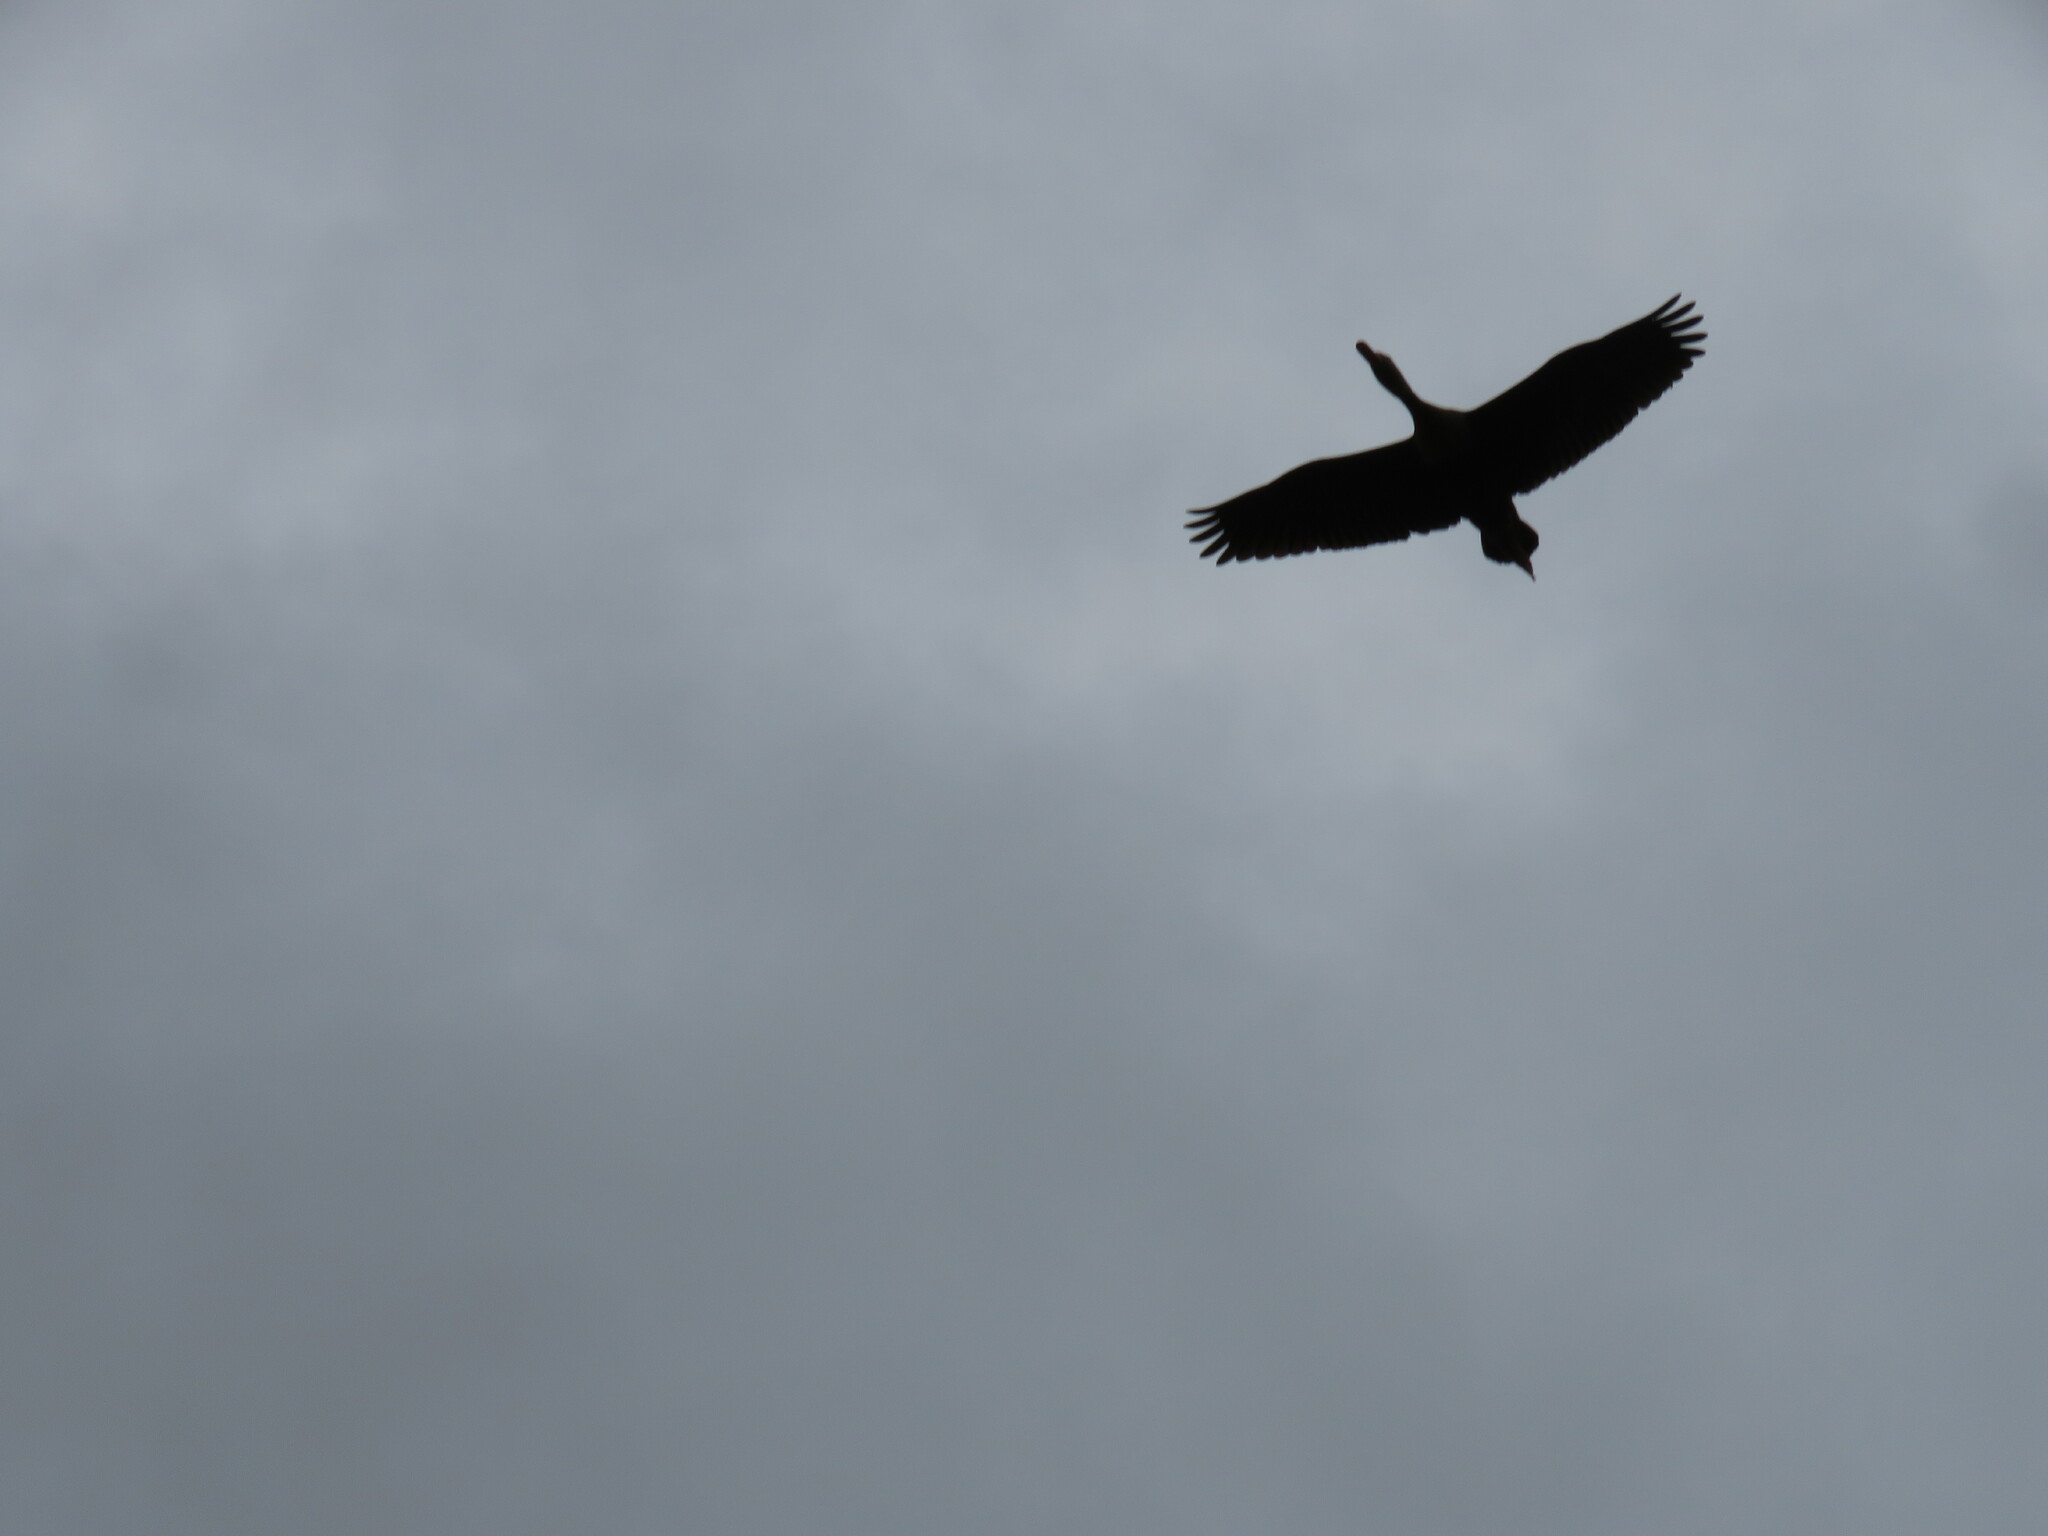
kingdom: Animalia
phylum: Chordata
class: Aves
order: Anseriformes
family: Anatidae
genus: Dendrocygna
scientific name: Dendrocygna autumnalis
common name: Black-bellied whistling duck
